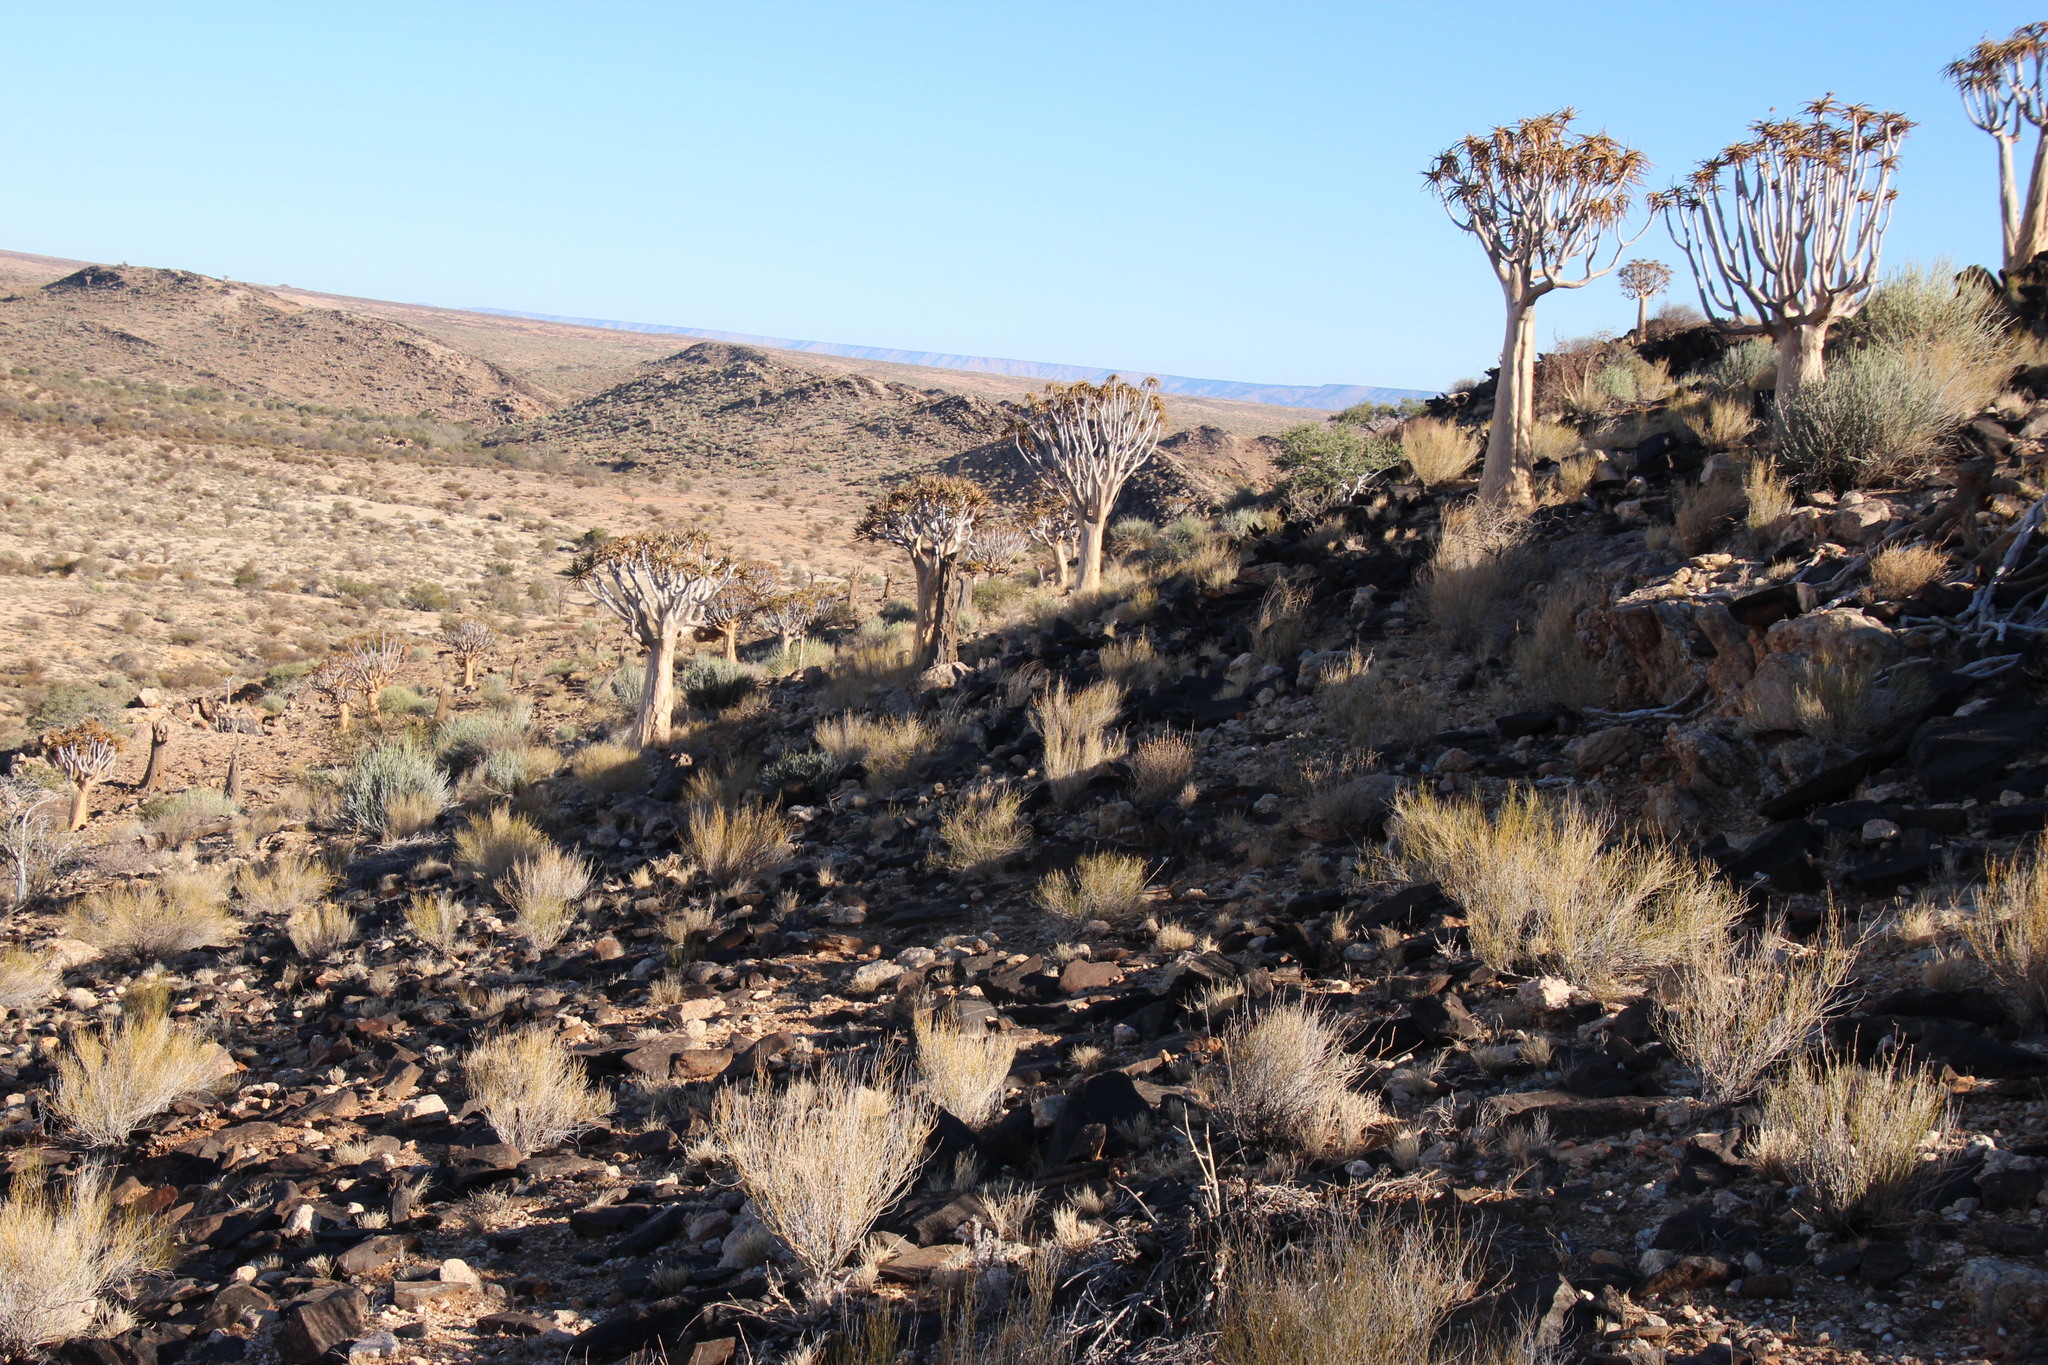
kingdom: Animalia
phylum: Chordata
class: Mammalia
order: Artiodactyla
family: Giraffidae
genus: Giraffa
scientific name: Giraffa giraffa
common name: Southern giraffe
